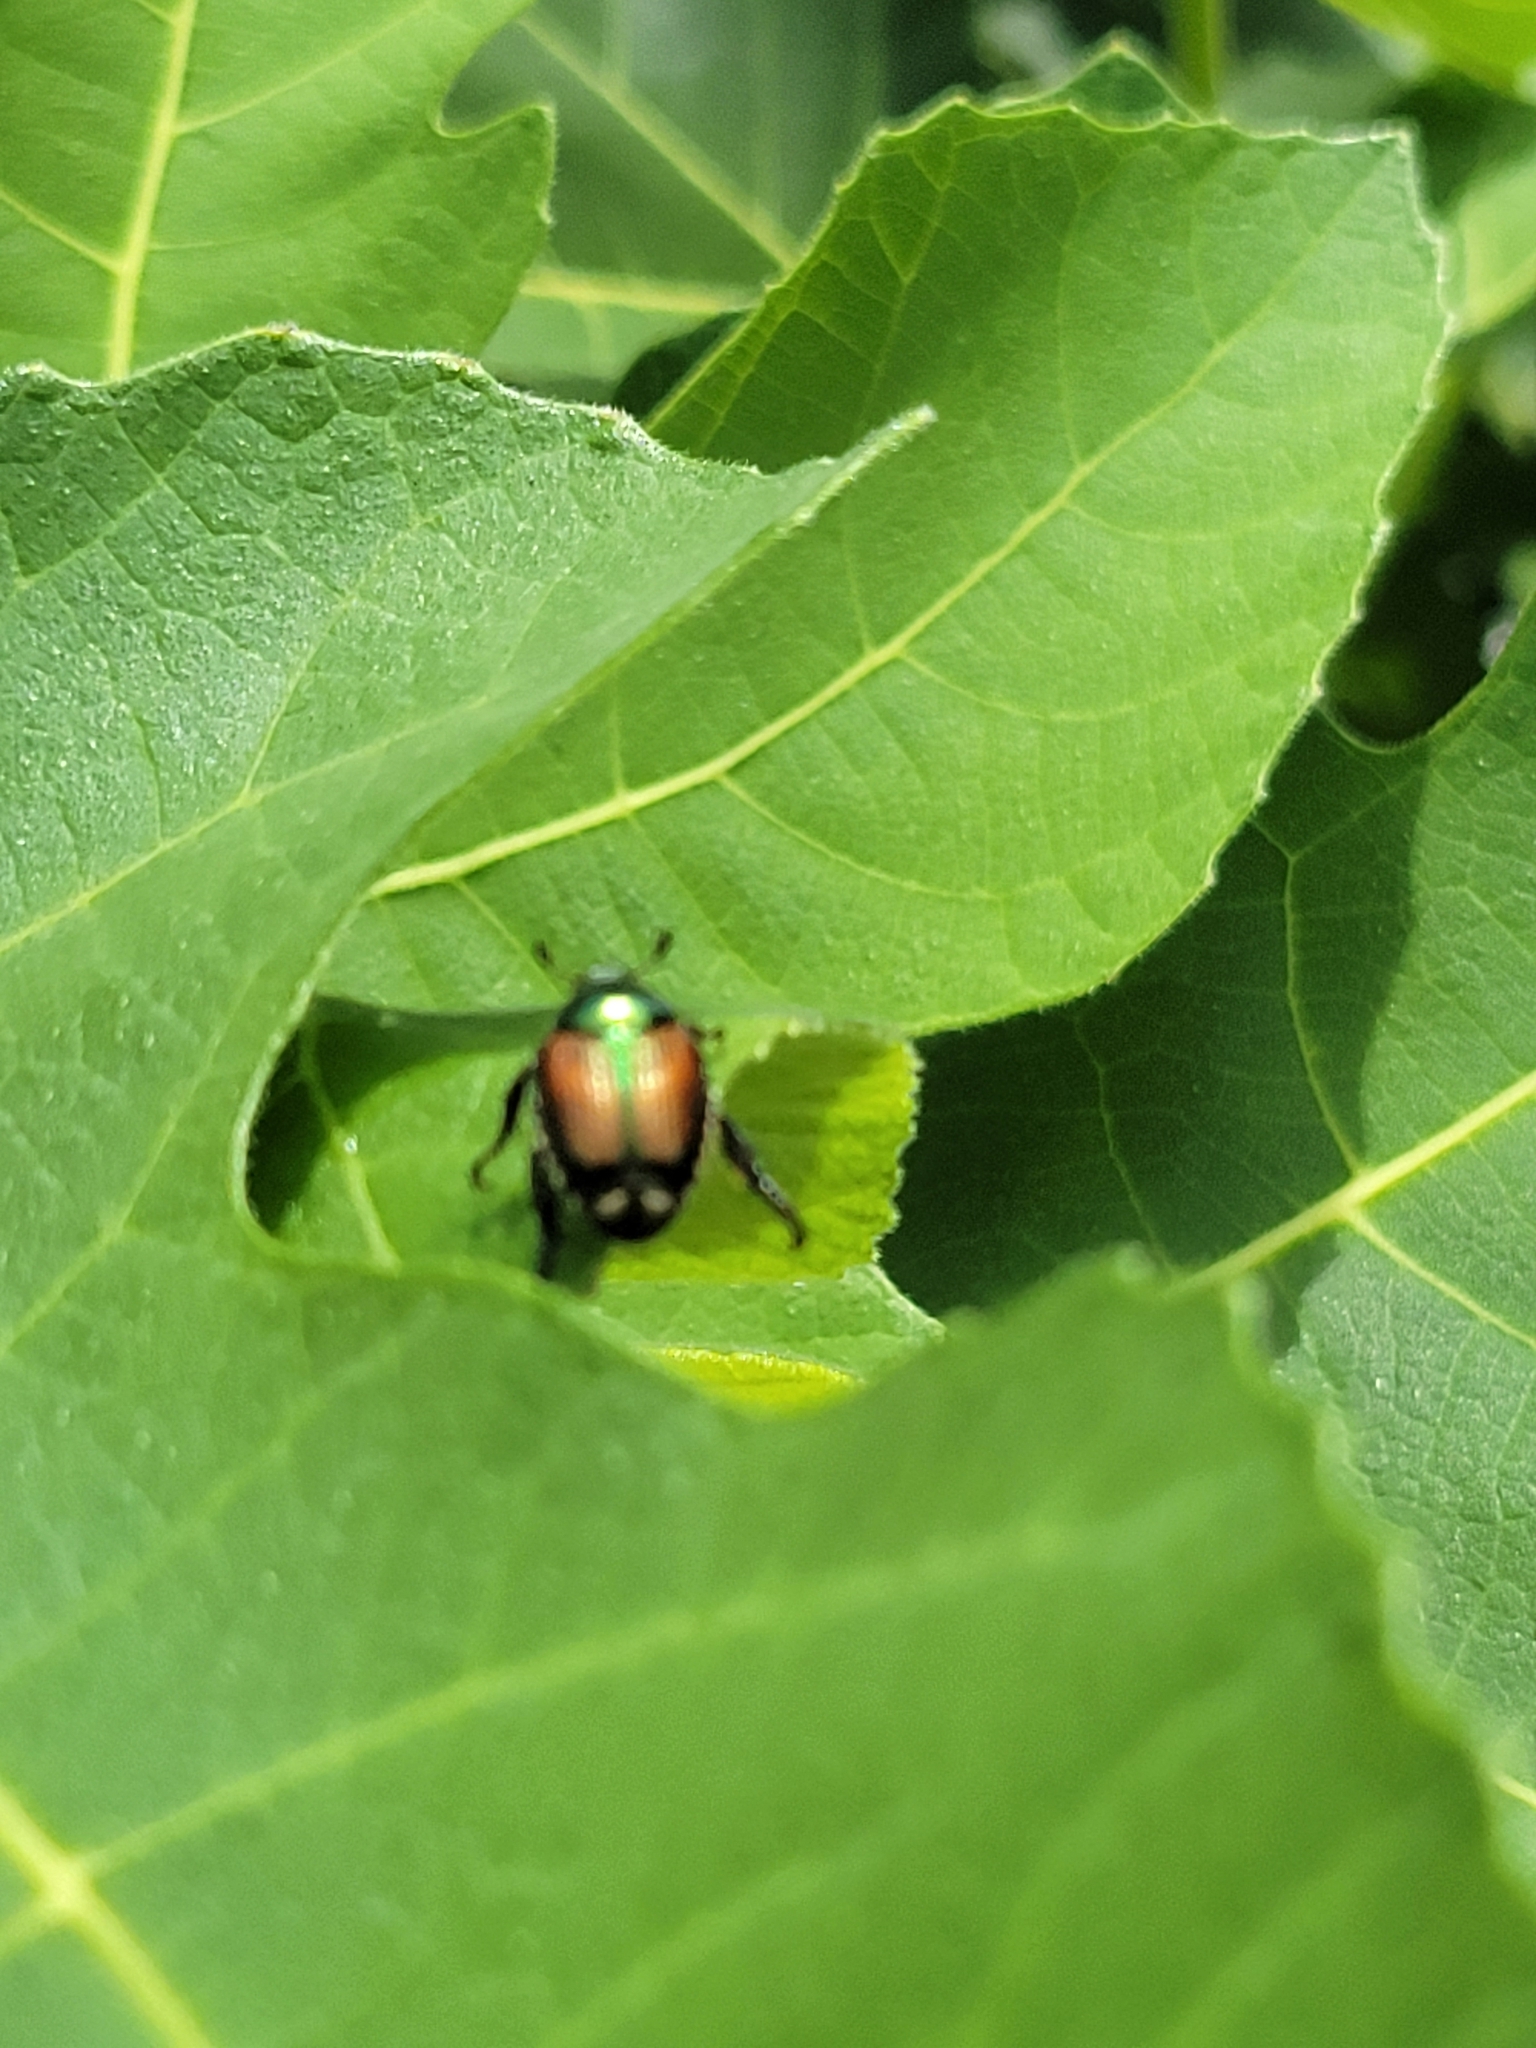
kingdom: Animalia
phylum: Arthropoda
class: Insecta
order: Coleoptera
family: Scarabaeidae
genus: Popillia
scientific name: Popillia japonica
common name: Japanese beetle
